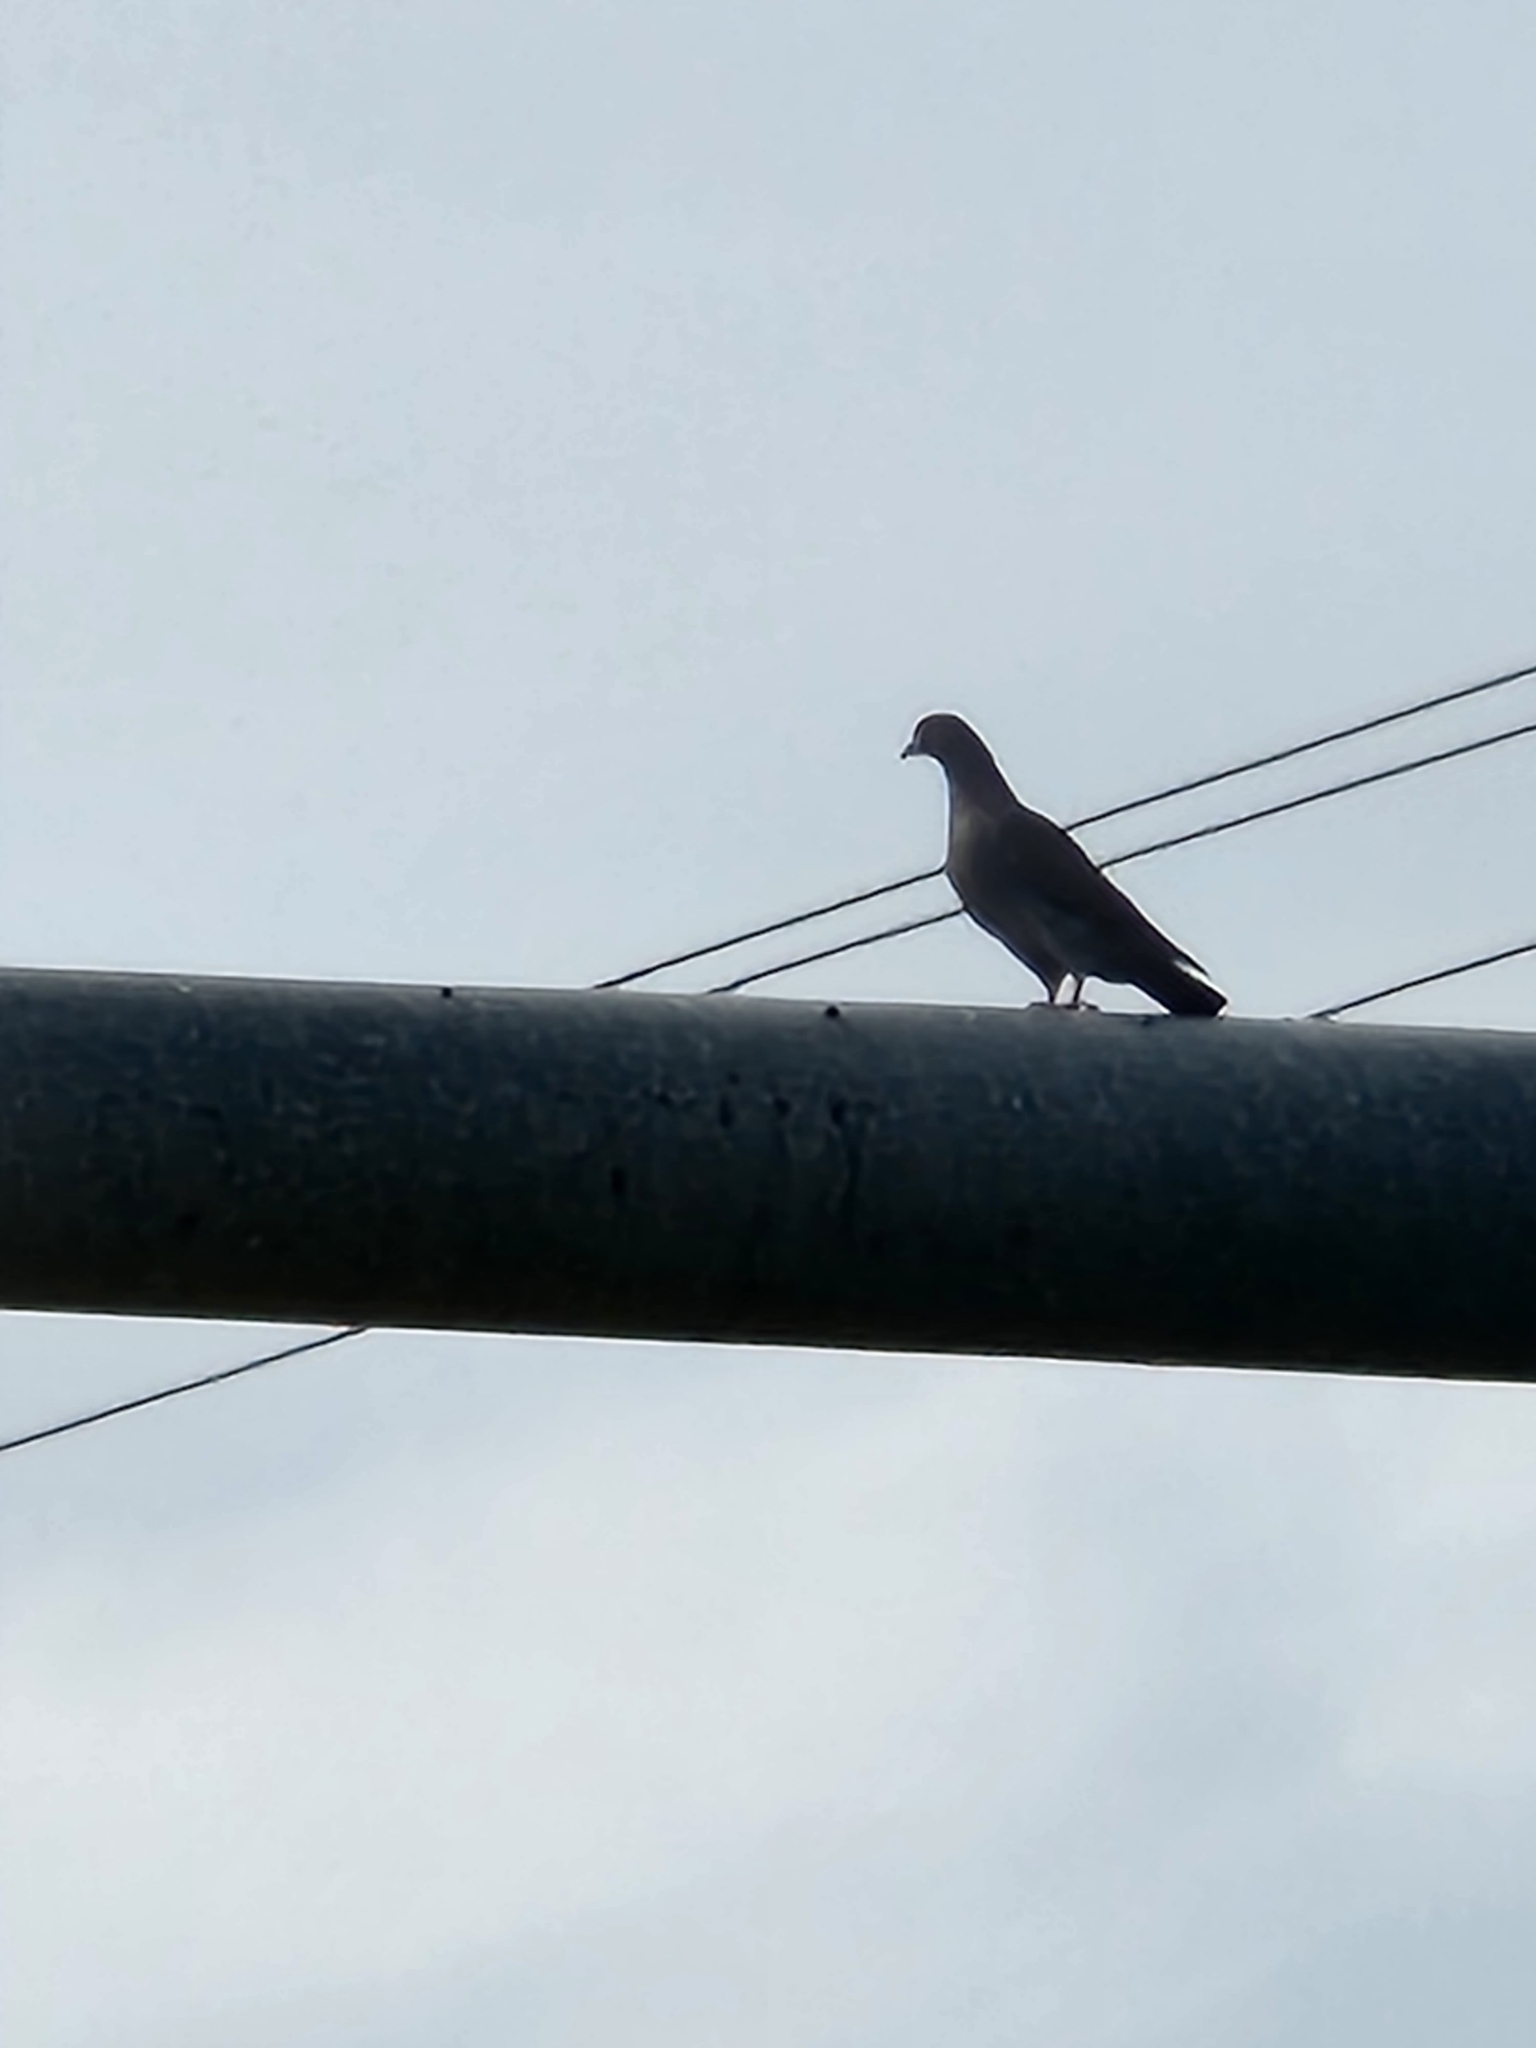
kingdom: Animalia
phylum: Chordata
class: Aves
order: Columbiformes
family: Columbidae
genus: Columba
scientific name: Columba livia
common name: Rock pigeon
